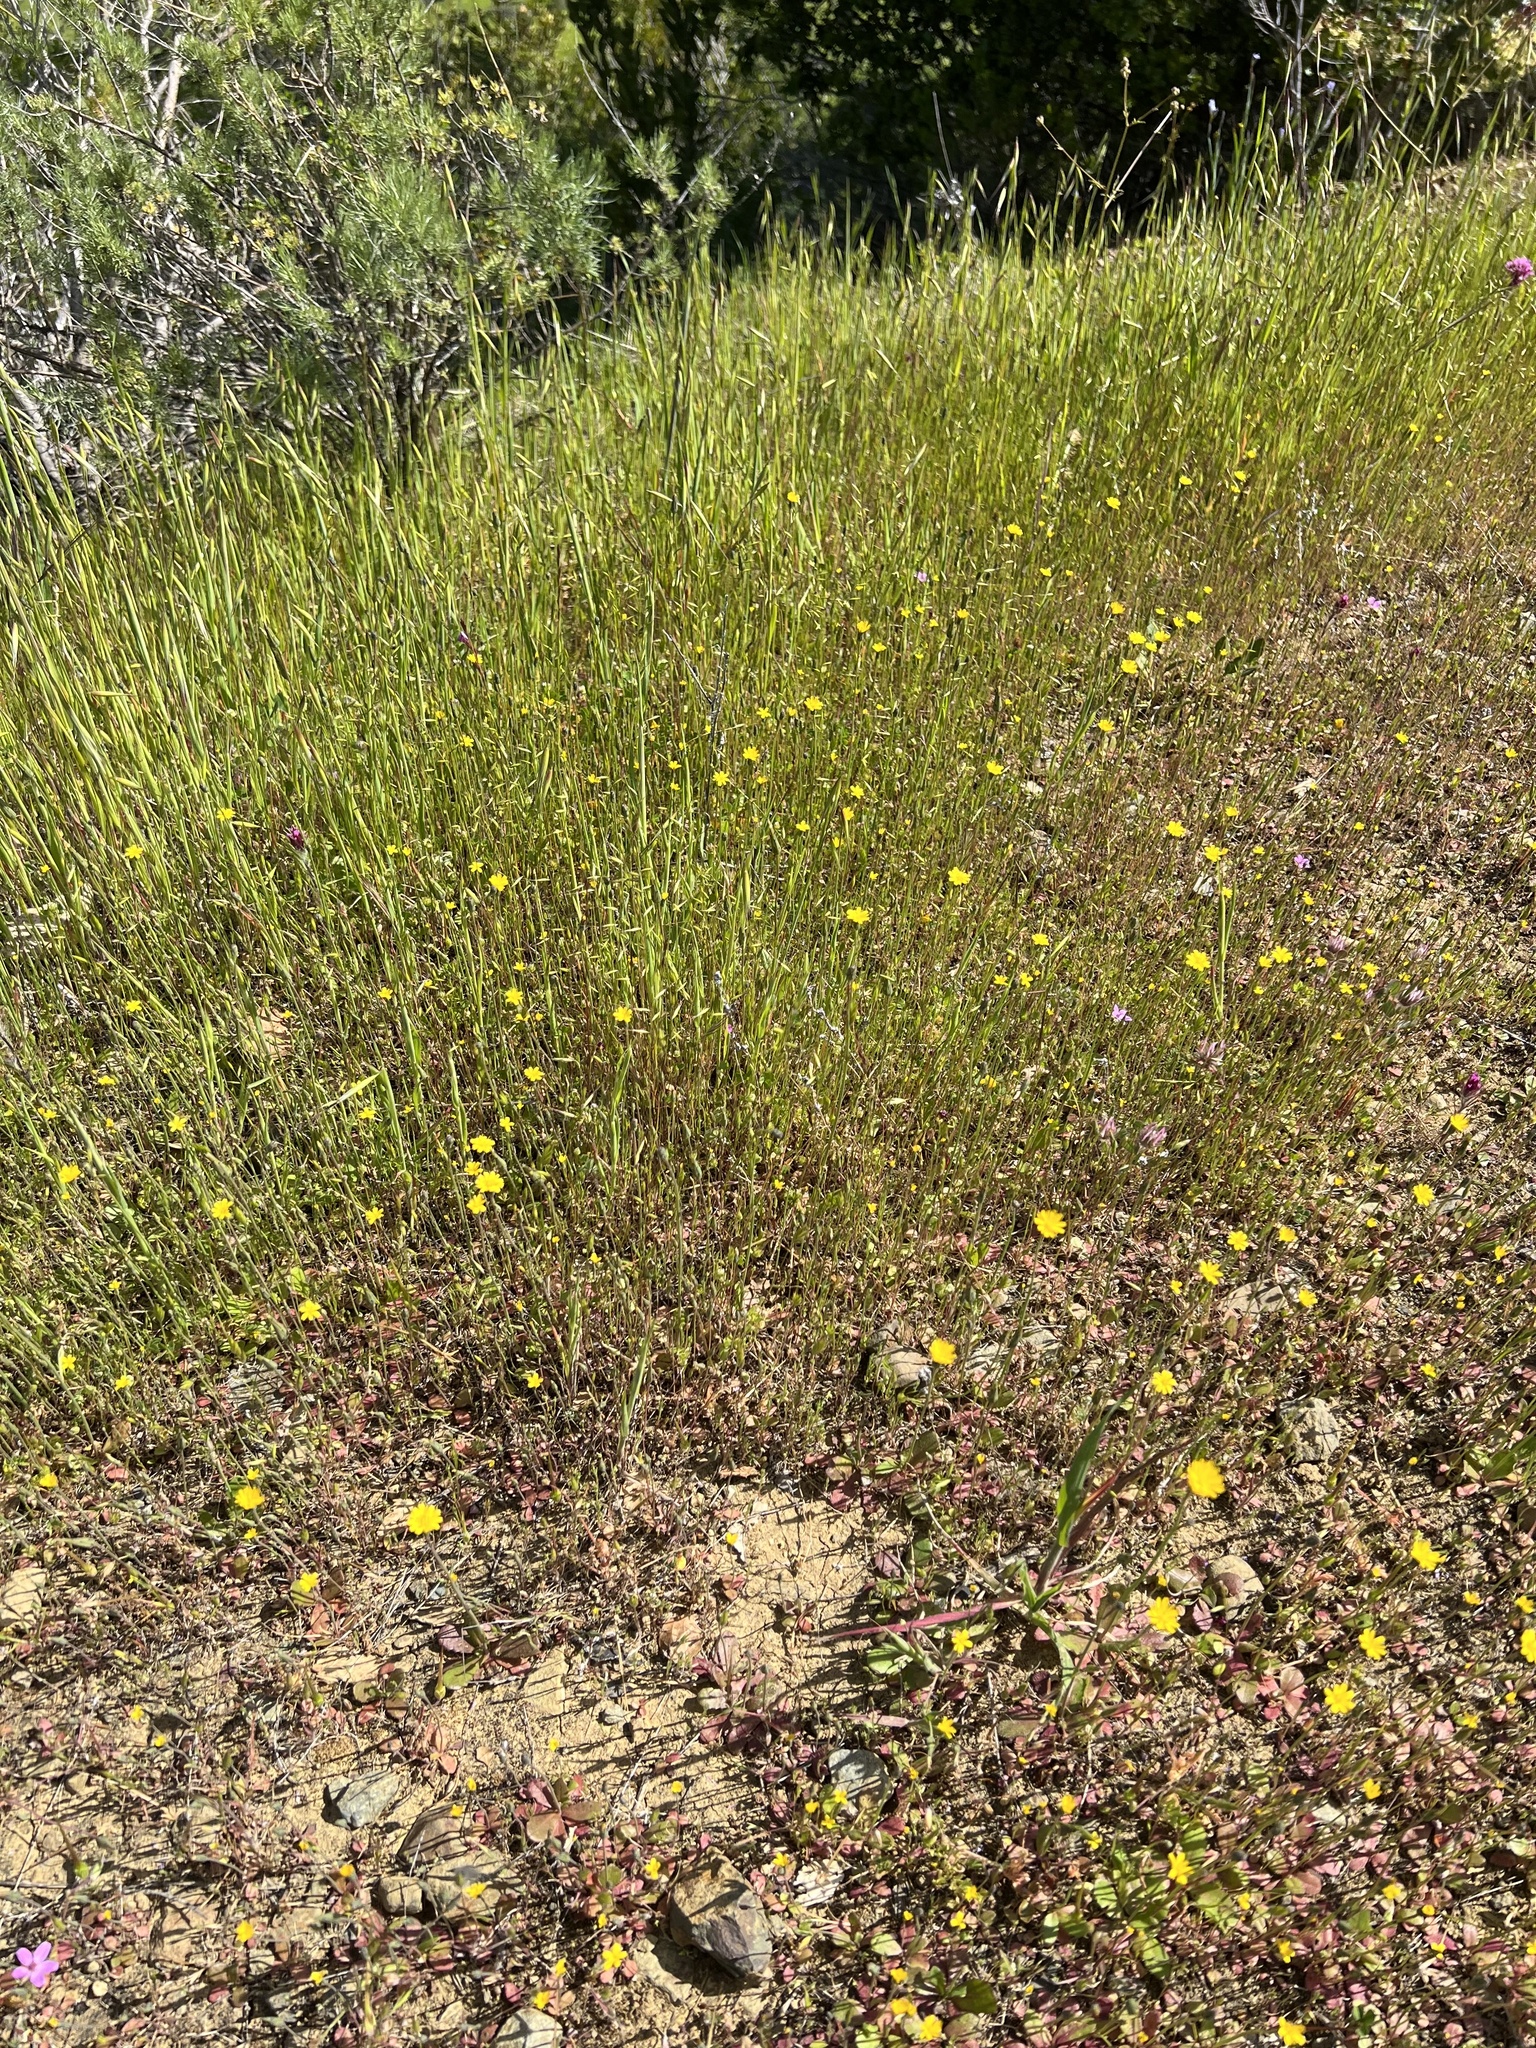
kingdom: Plantae
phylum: Tracheophyta
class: Magnoliopsida
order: Asterales
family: Asteraceae
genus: Hypochaeris
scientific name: Hypochaeris glabra
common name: Smooth catsear
